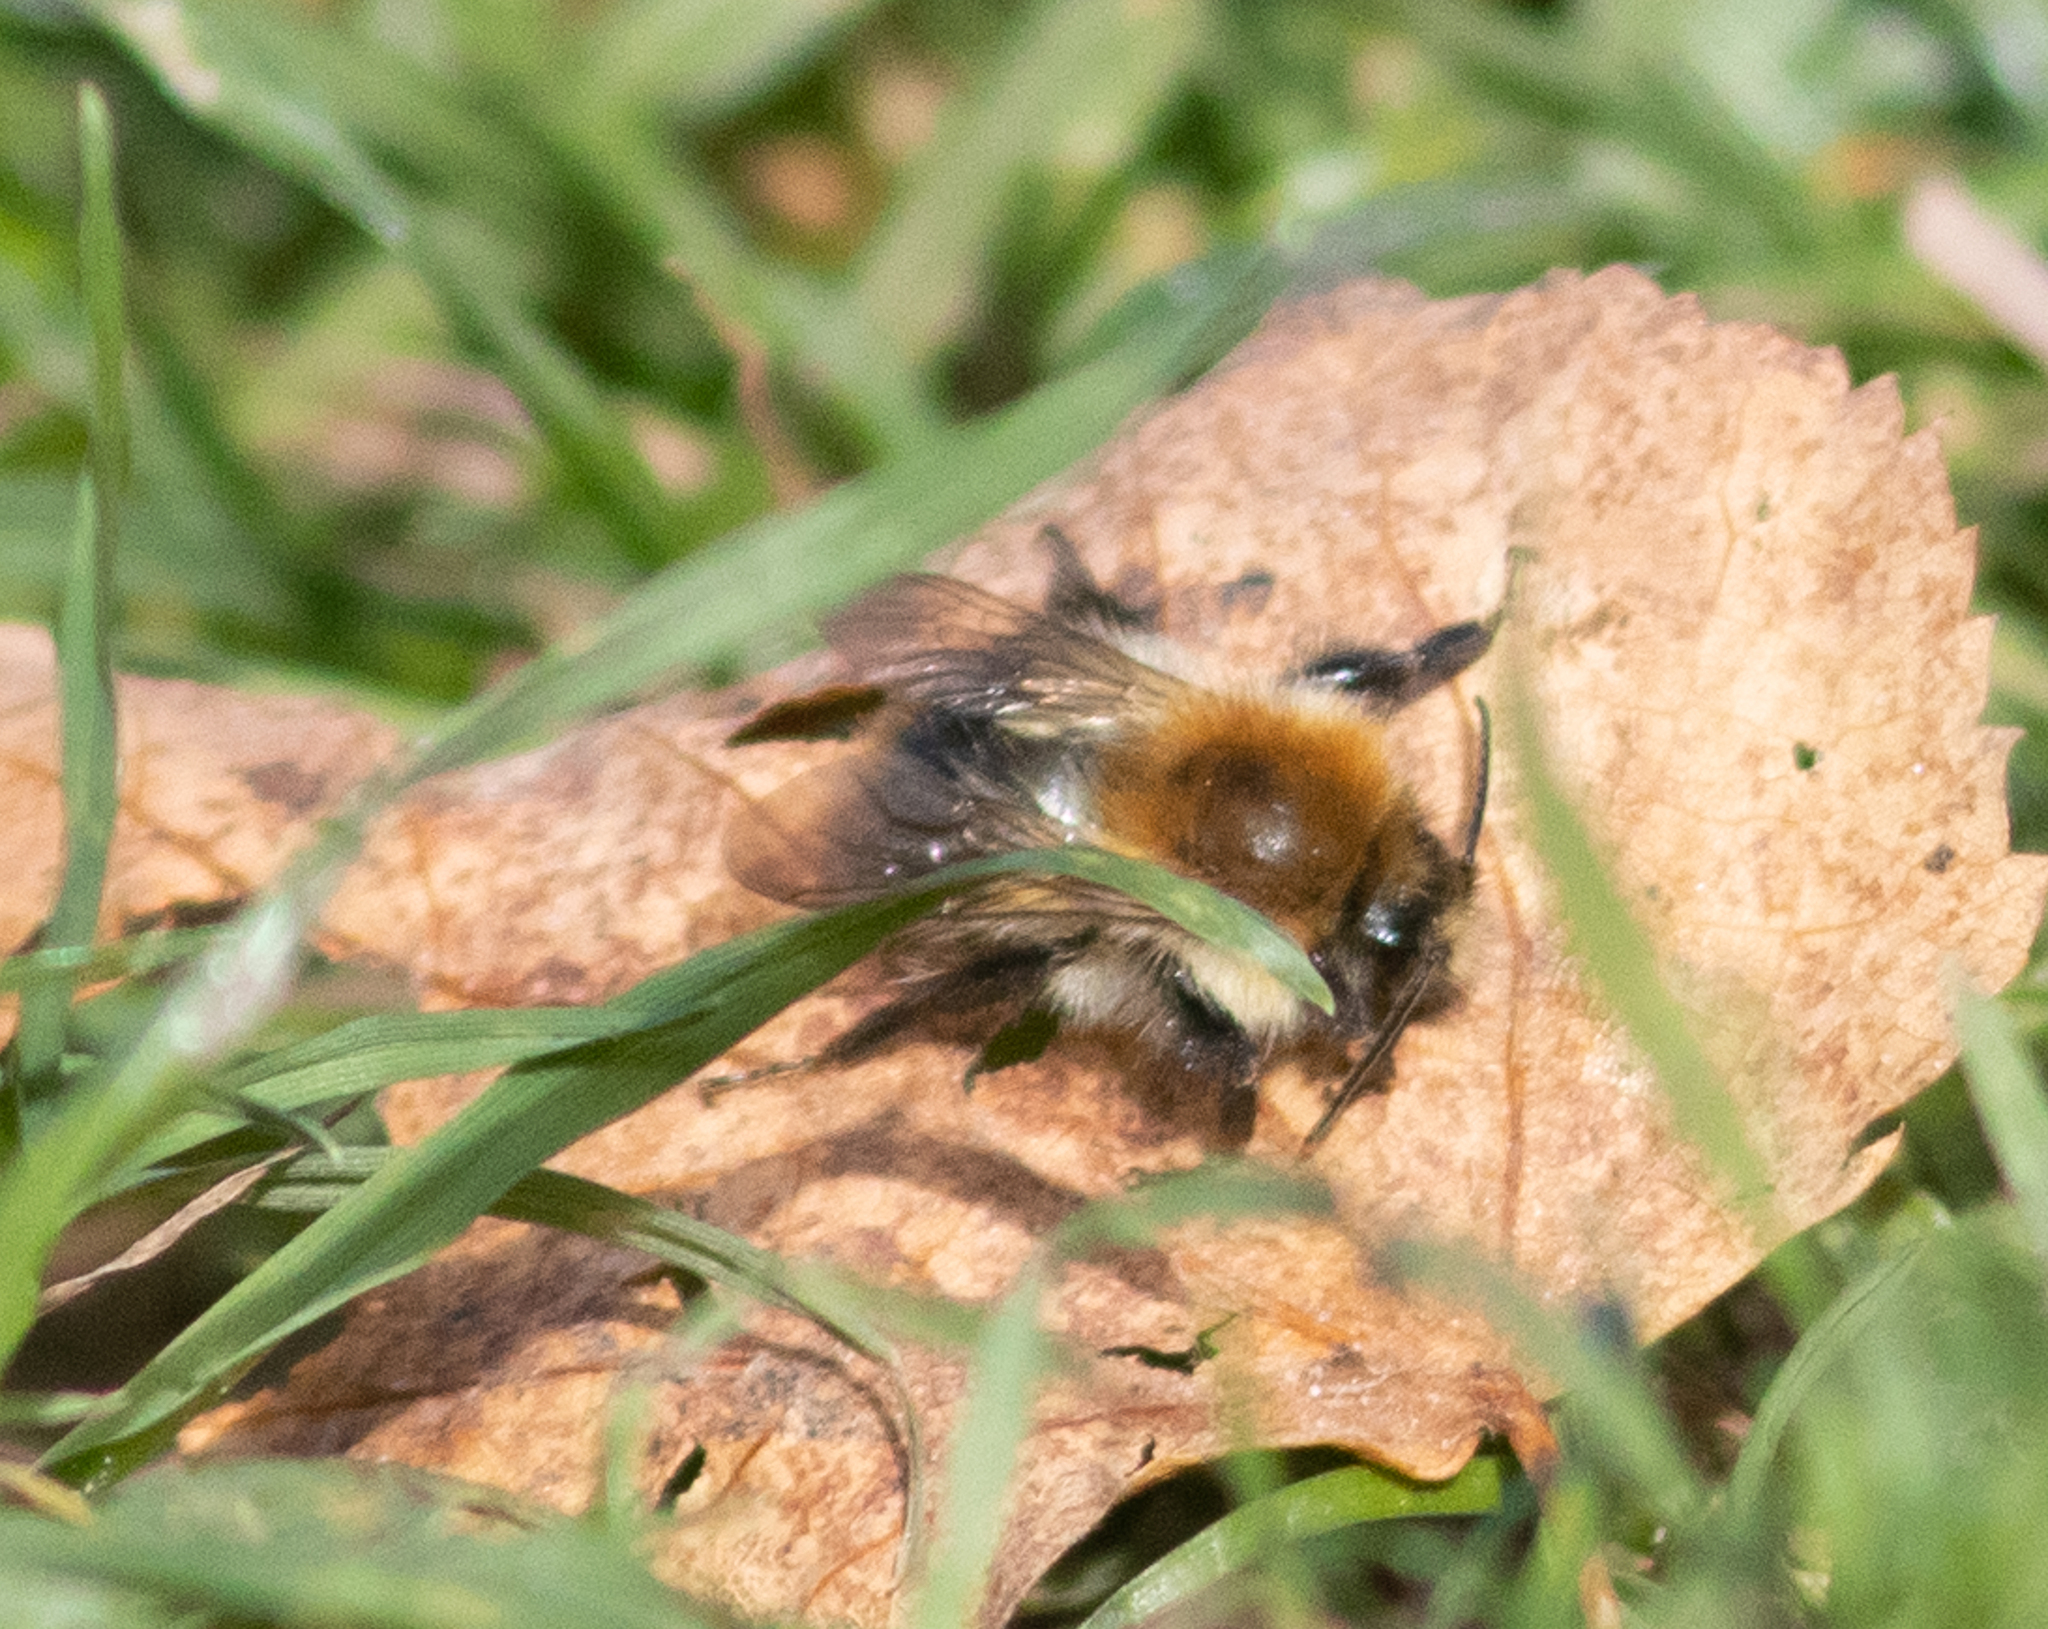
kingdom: Animalia
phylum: Arthropoda
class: Insecta
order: Hymenoptera
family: Apidae
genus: Bombus
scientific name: Bombus pascuorum
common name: Common carder bee
